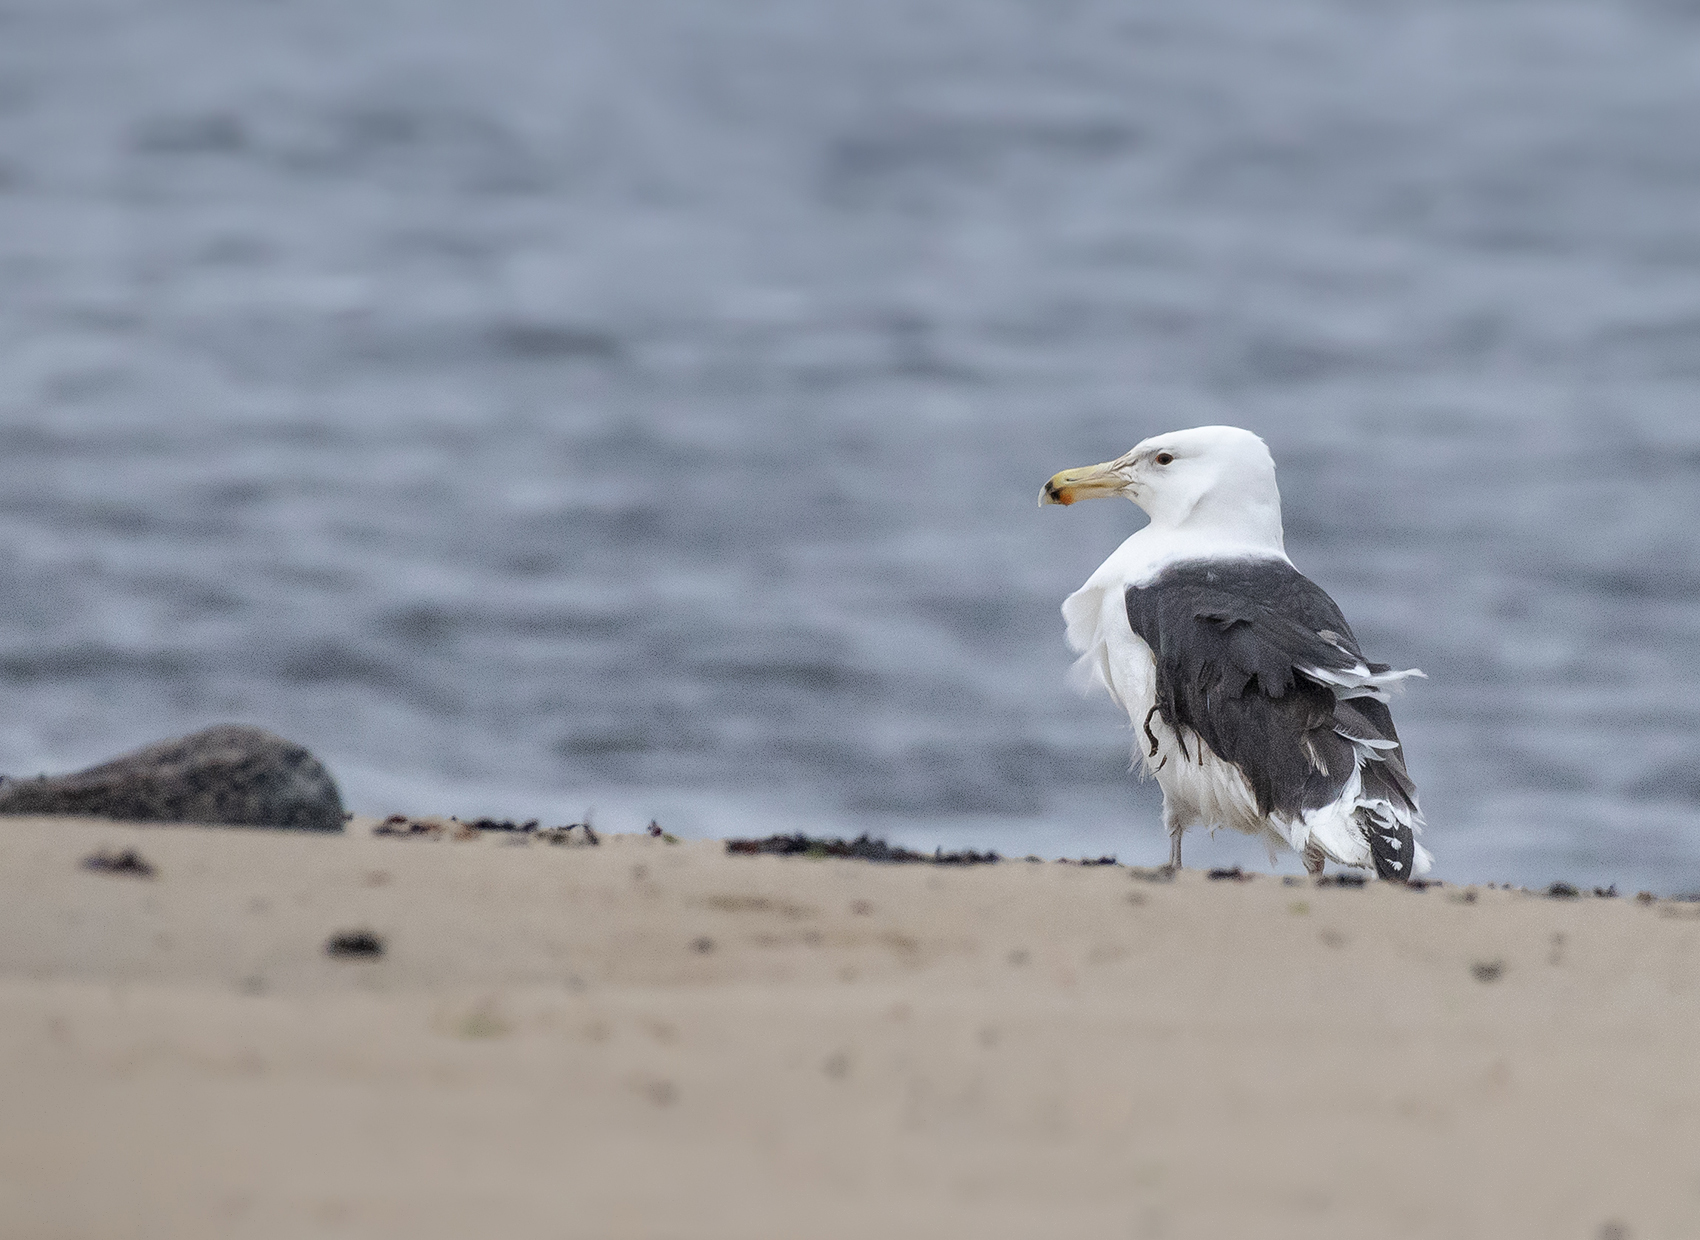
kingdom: Animalia
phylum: Chordata
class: Aves
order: Charadriiformes
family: Laridae
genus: Larus
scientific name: Larus marinus
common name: Great black-backed gull
